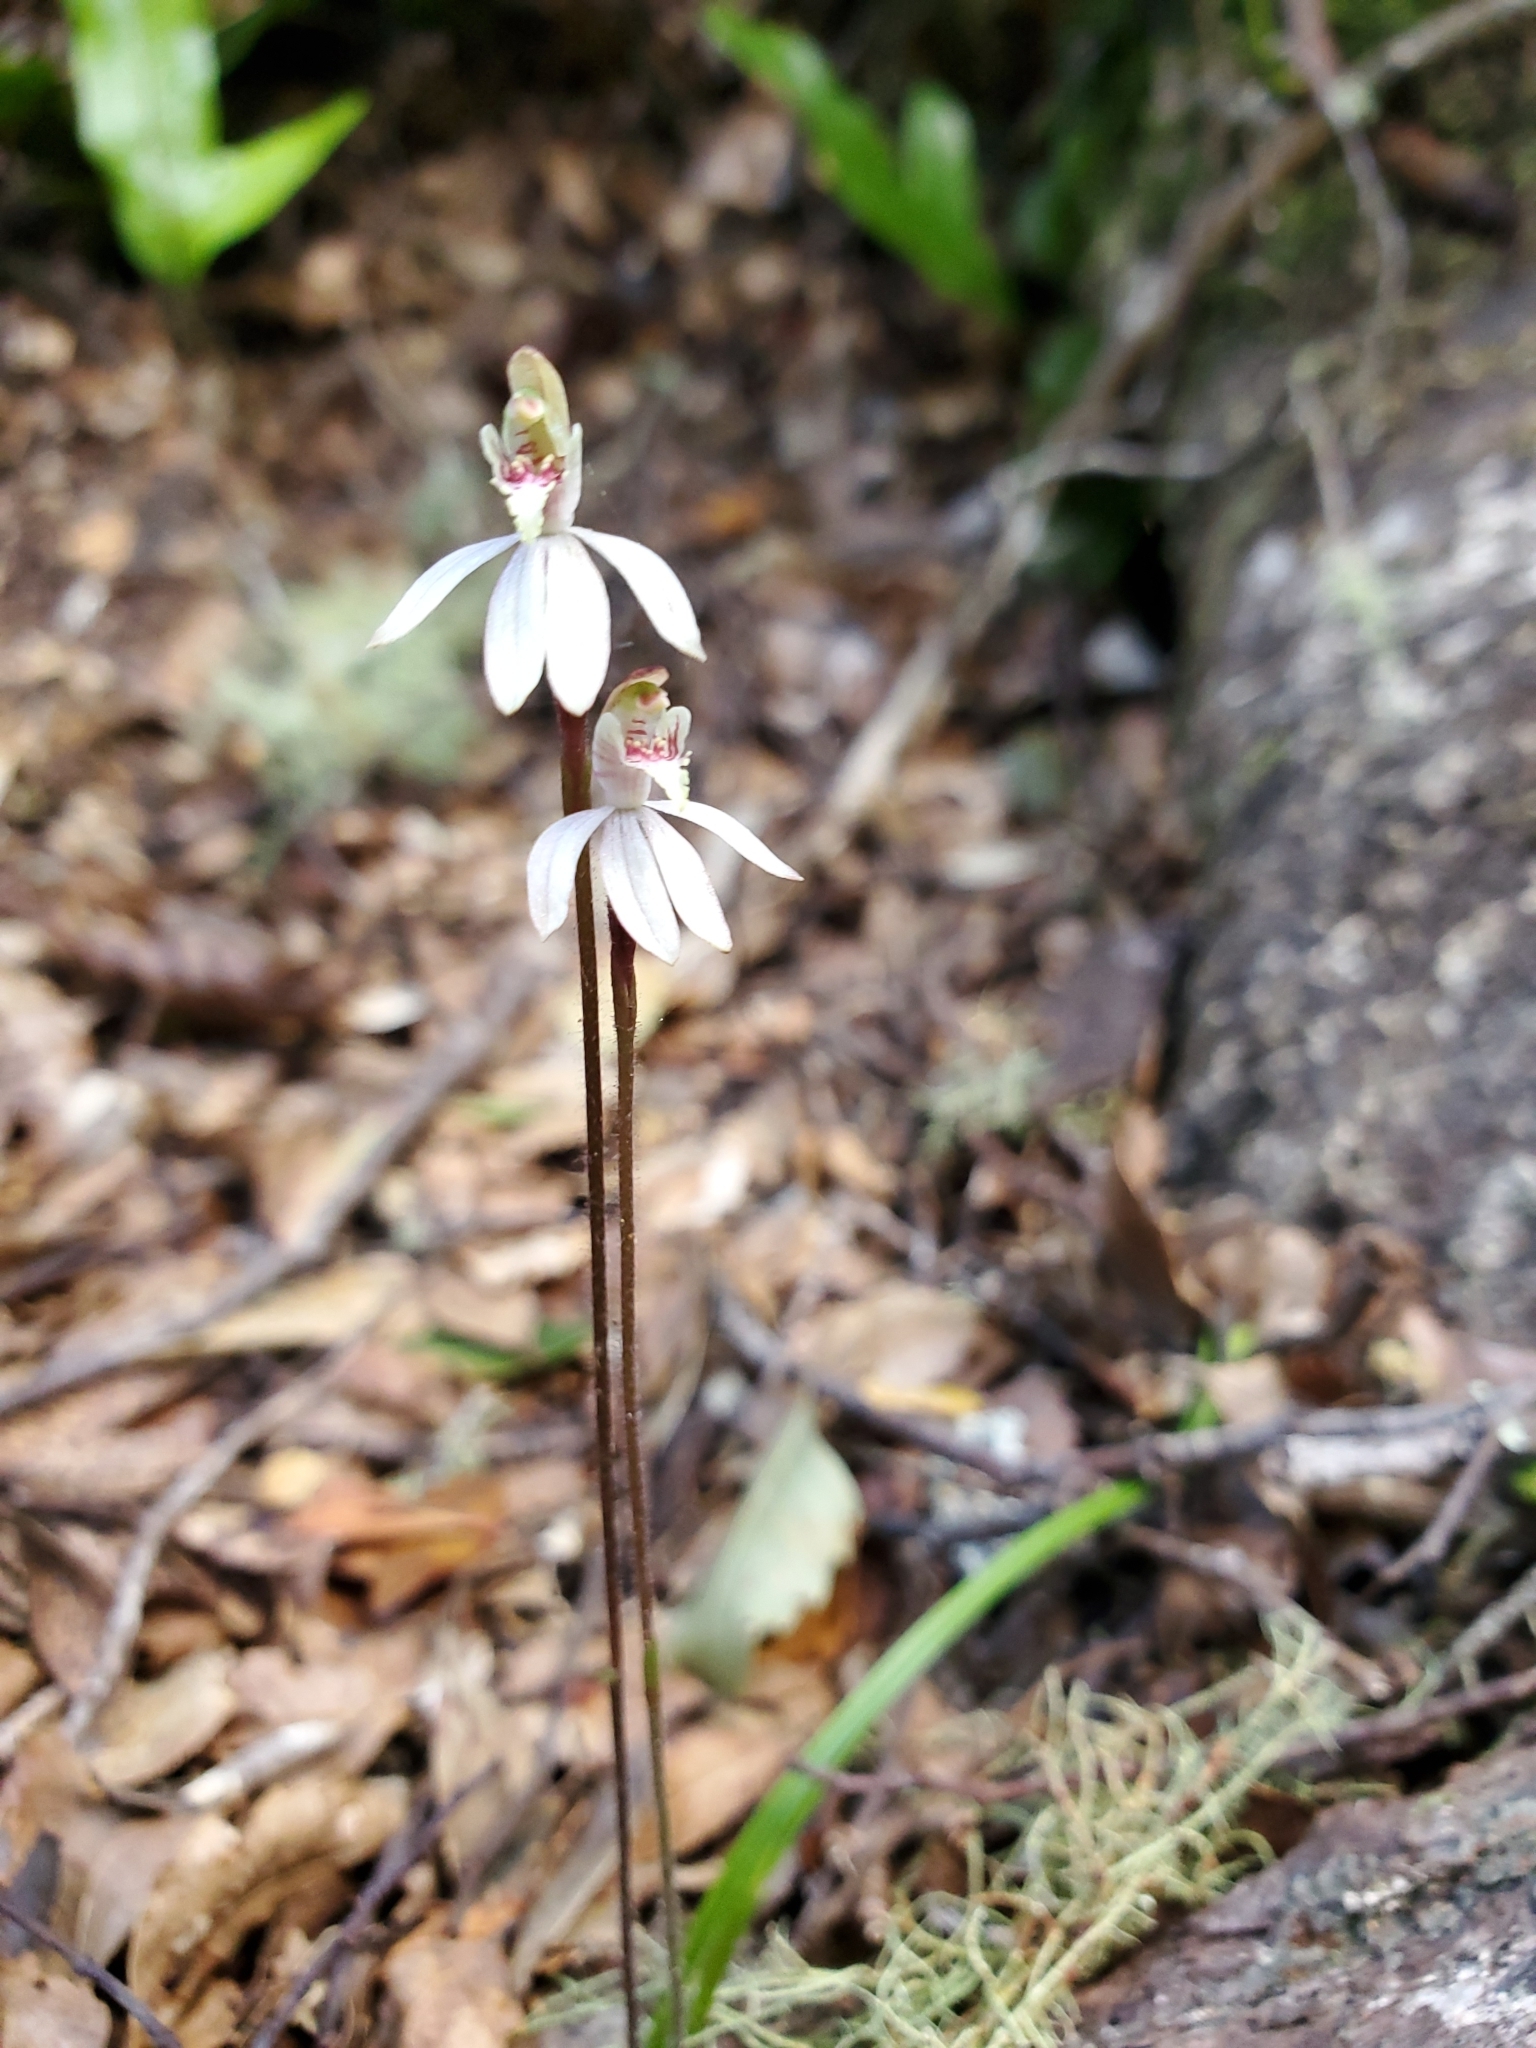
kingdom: Plantae
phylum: Tracheophyta
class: Liliopsida
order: Asparagales
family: Orchidaceae
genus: Caladenia
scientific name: Caladenia chlorostyla
